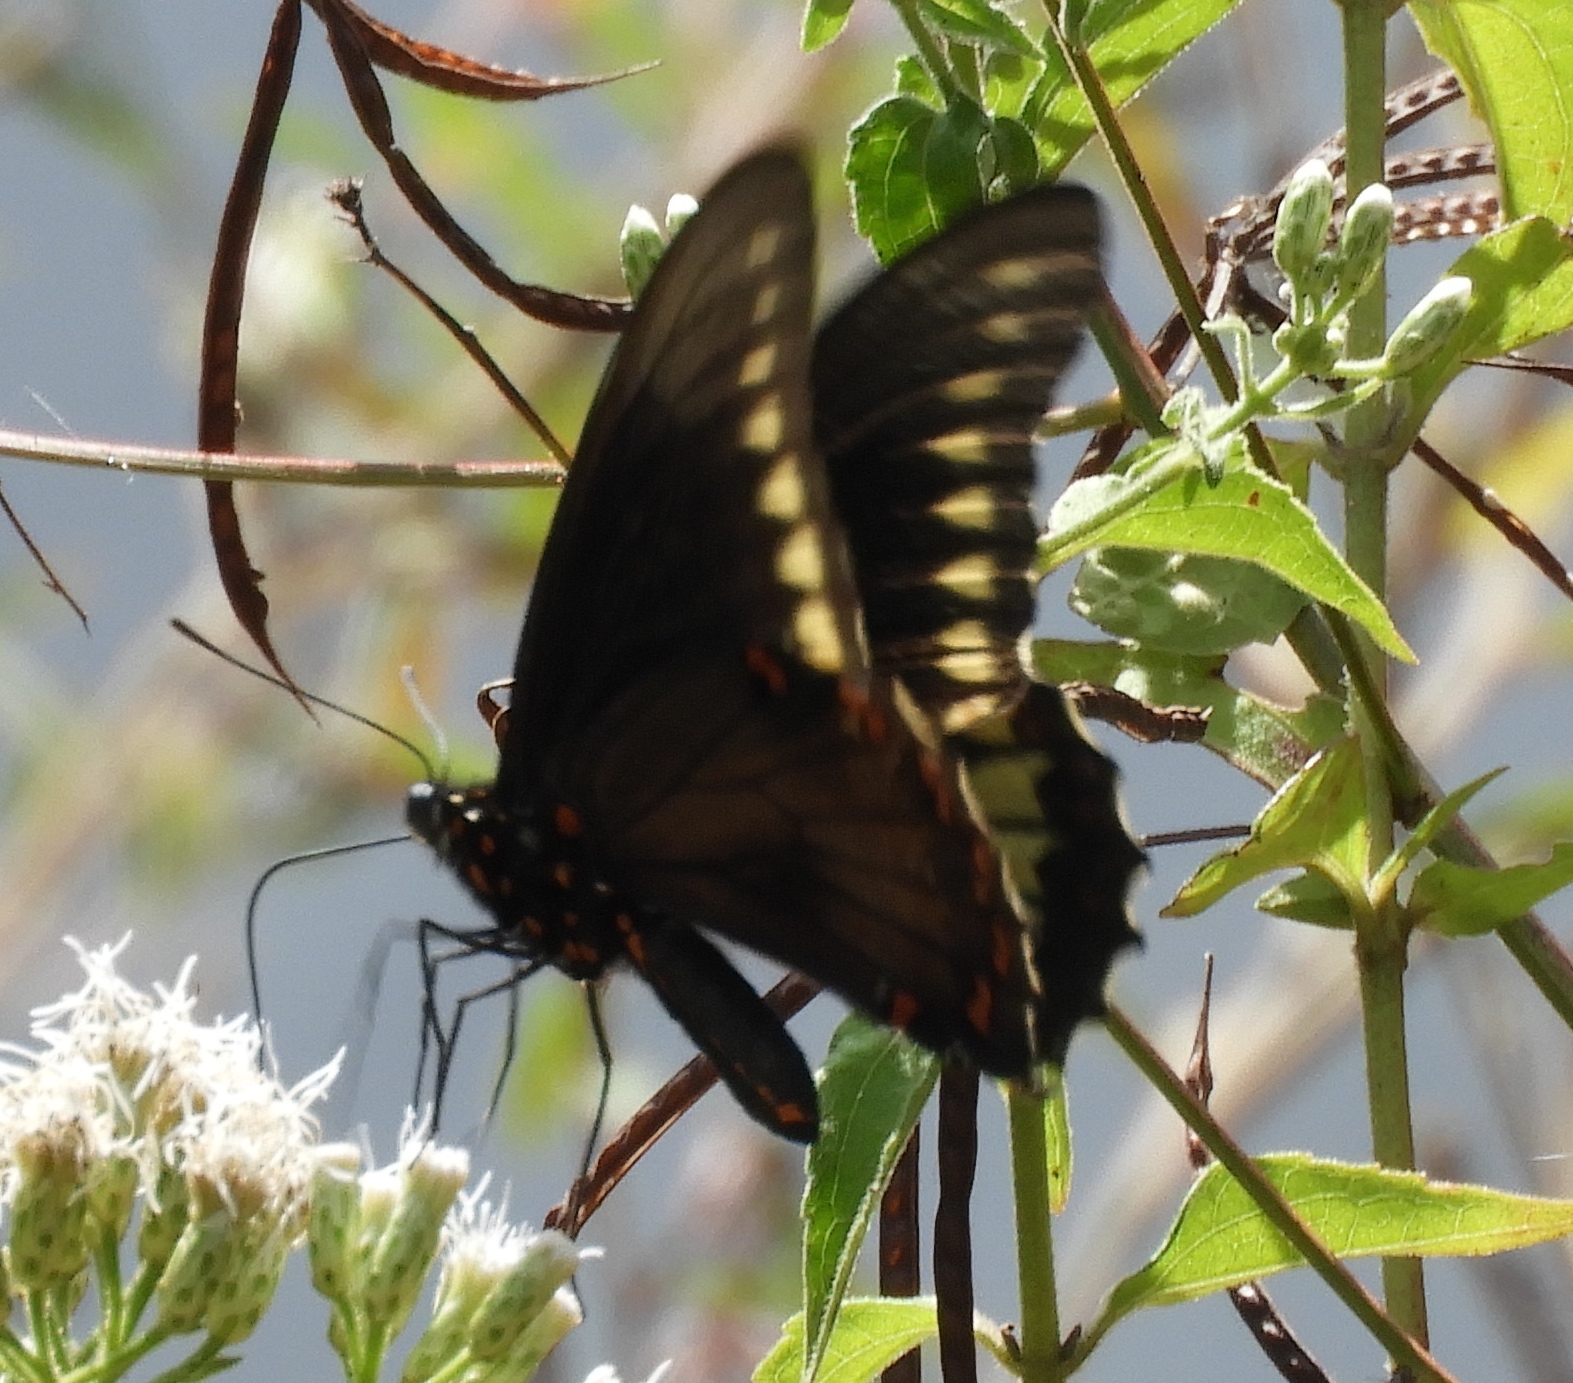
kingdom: Animalia
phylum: Arthropoda
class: Insecta
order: Lepidoptera
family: Papilionidae
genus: Battus
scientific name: Battus polydamas
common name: Polydamas swallowtail
